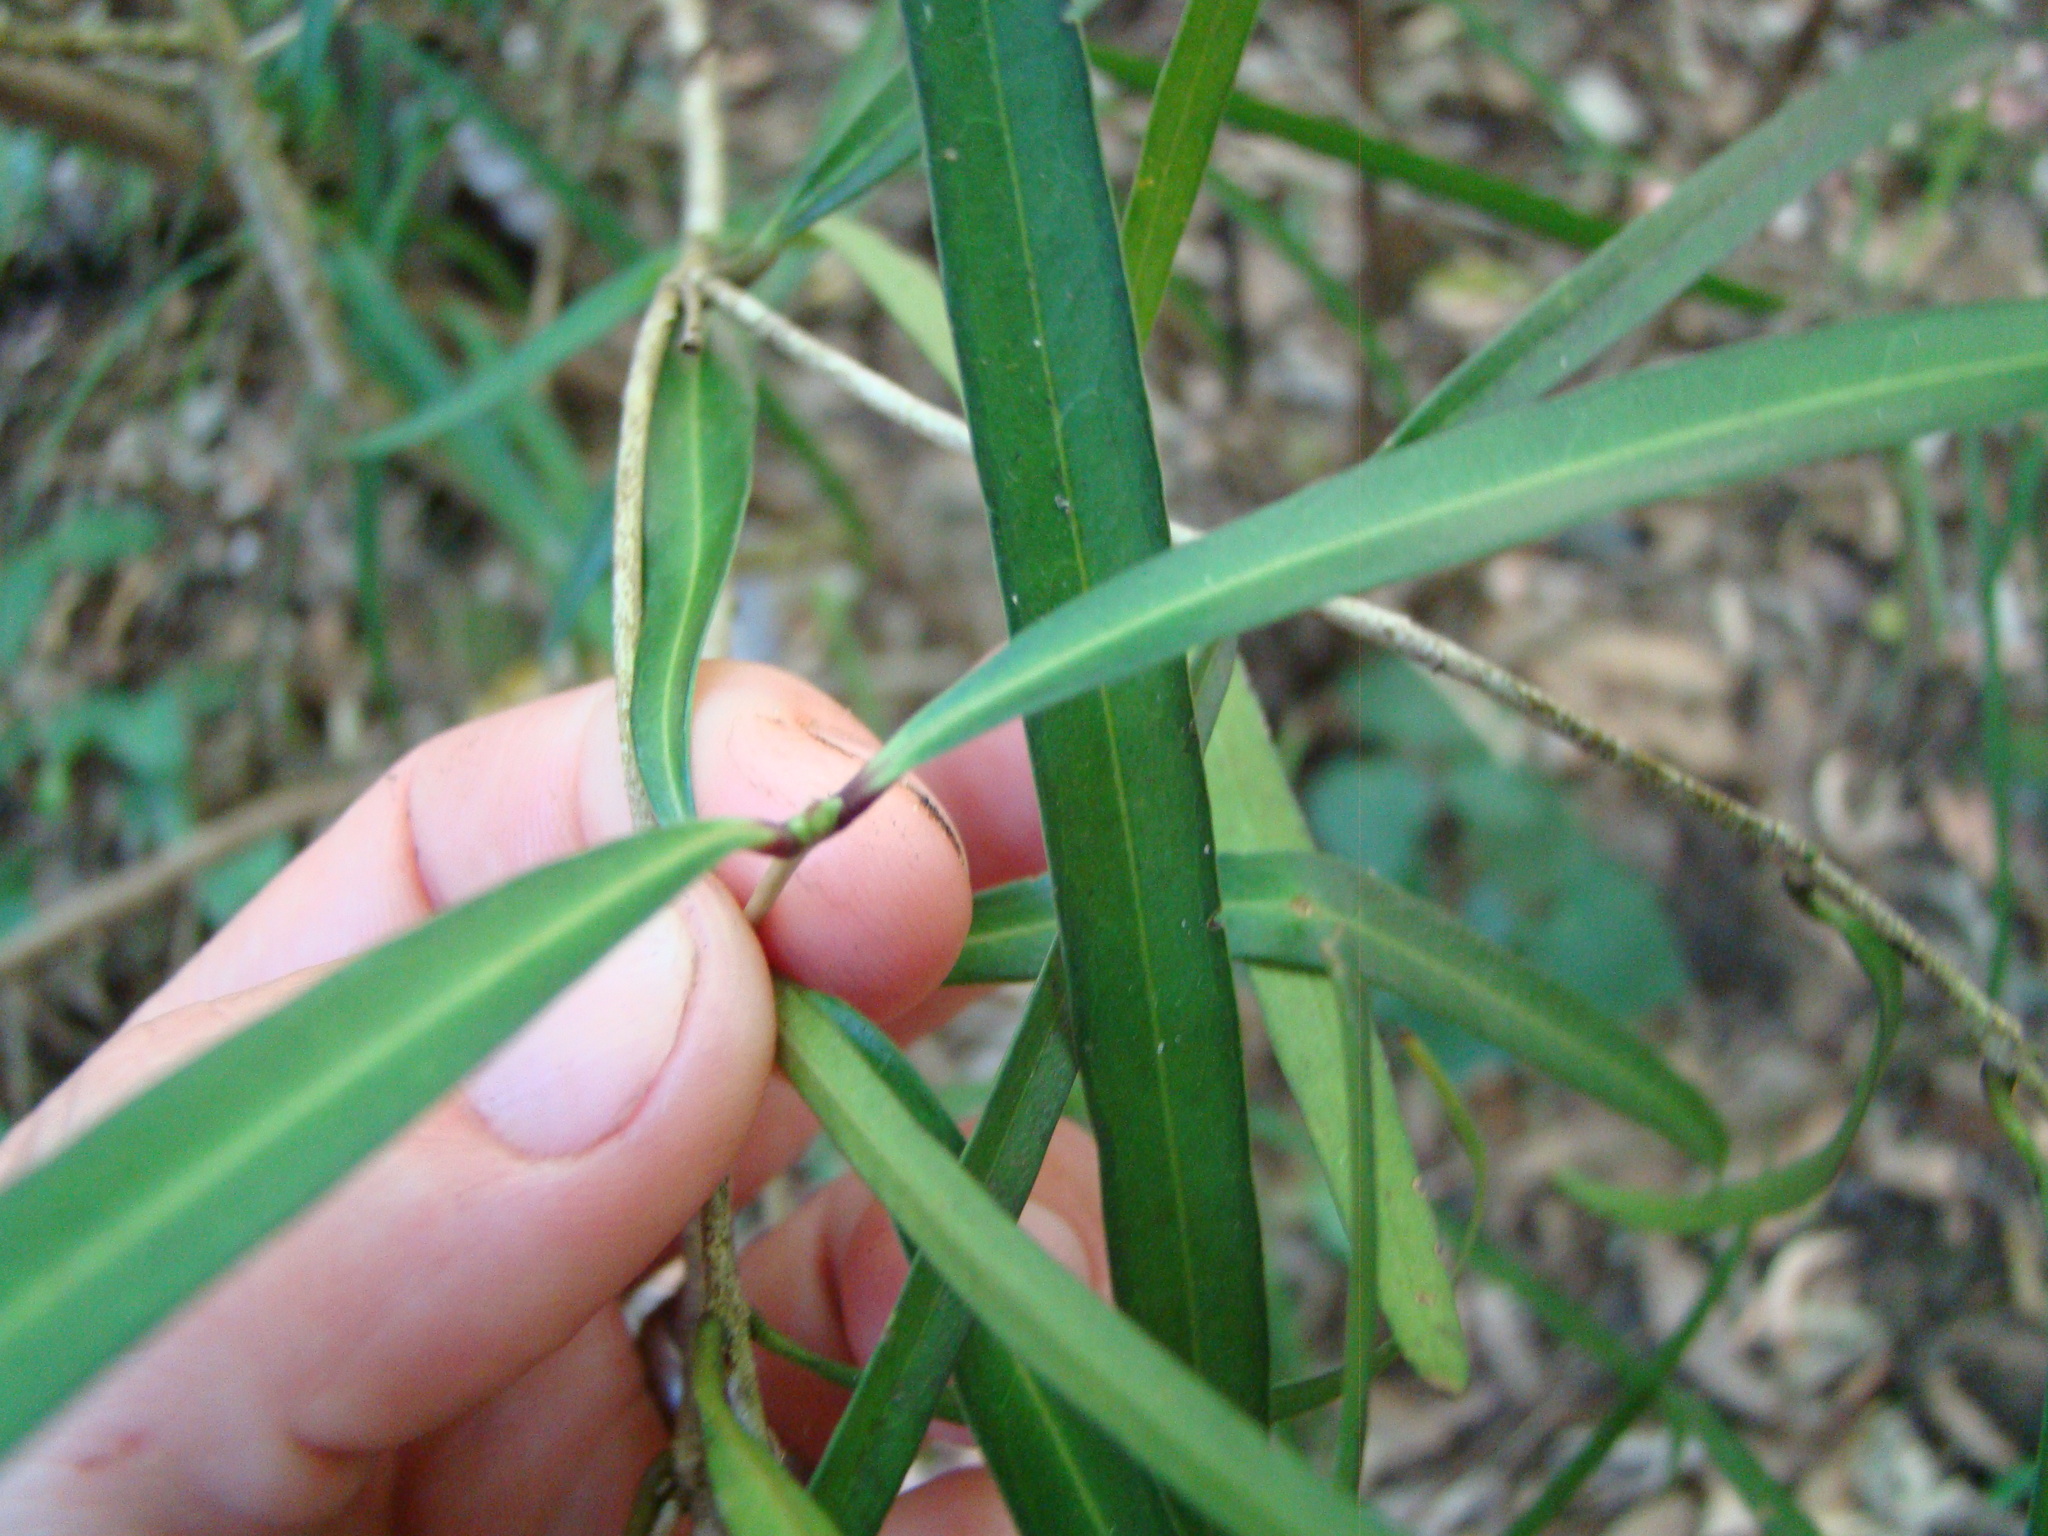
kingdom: Plantae
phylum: Tracheophyta
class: Magnoliopsida
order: Lamiales
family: Oleaceae
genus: Nestegis
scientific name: Nestegis lanceolata
